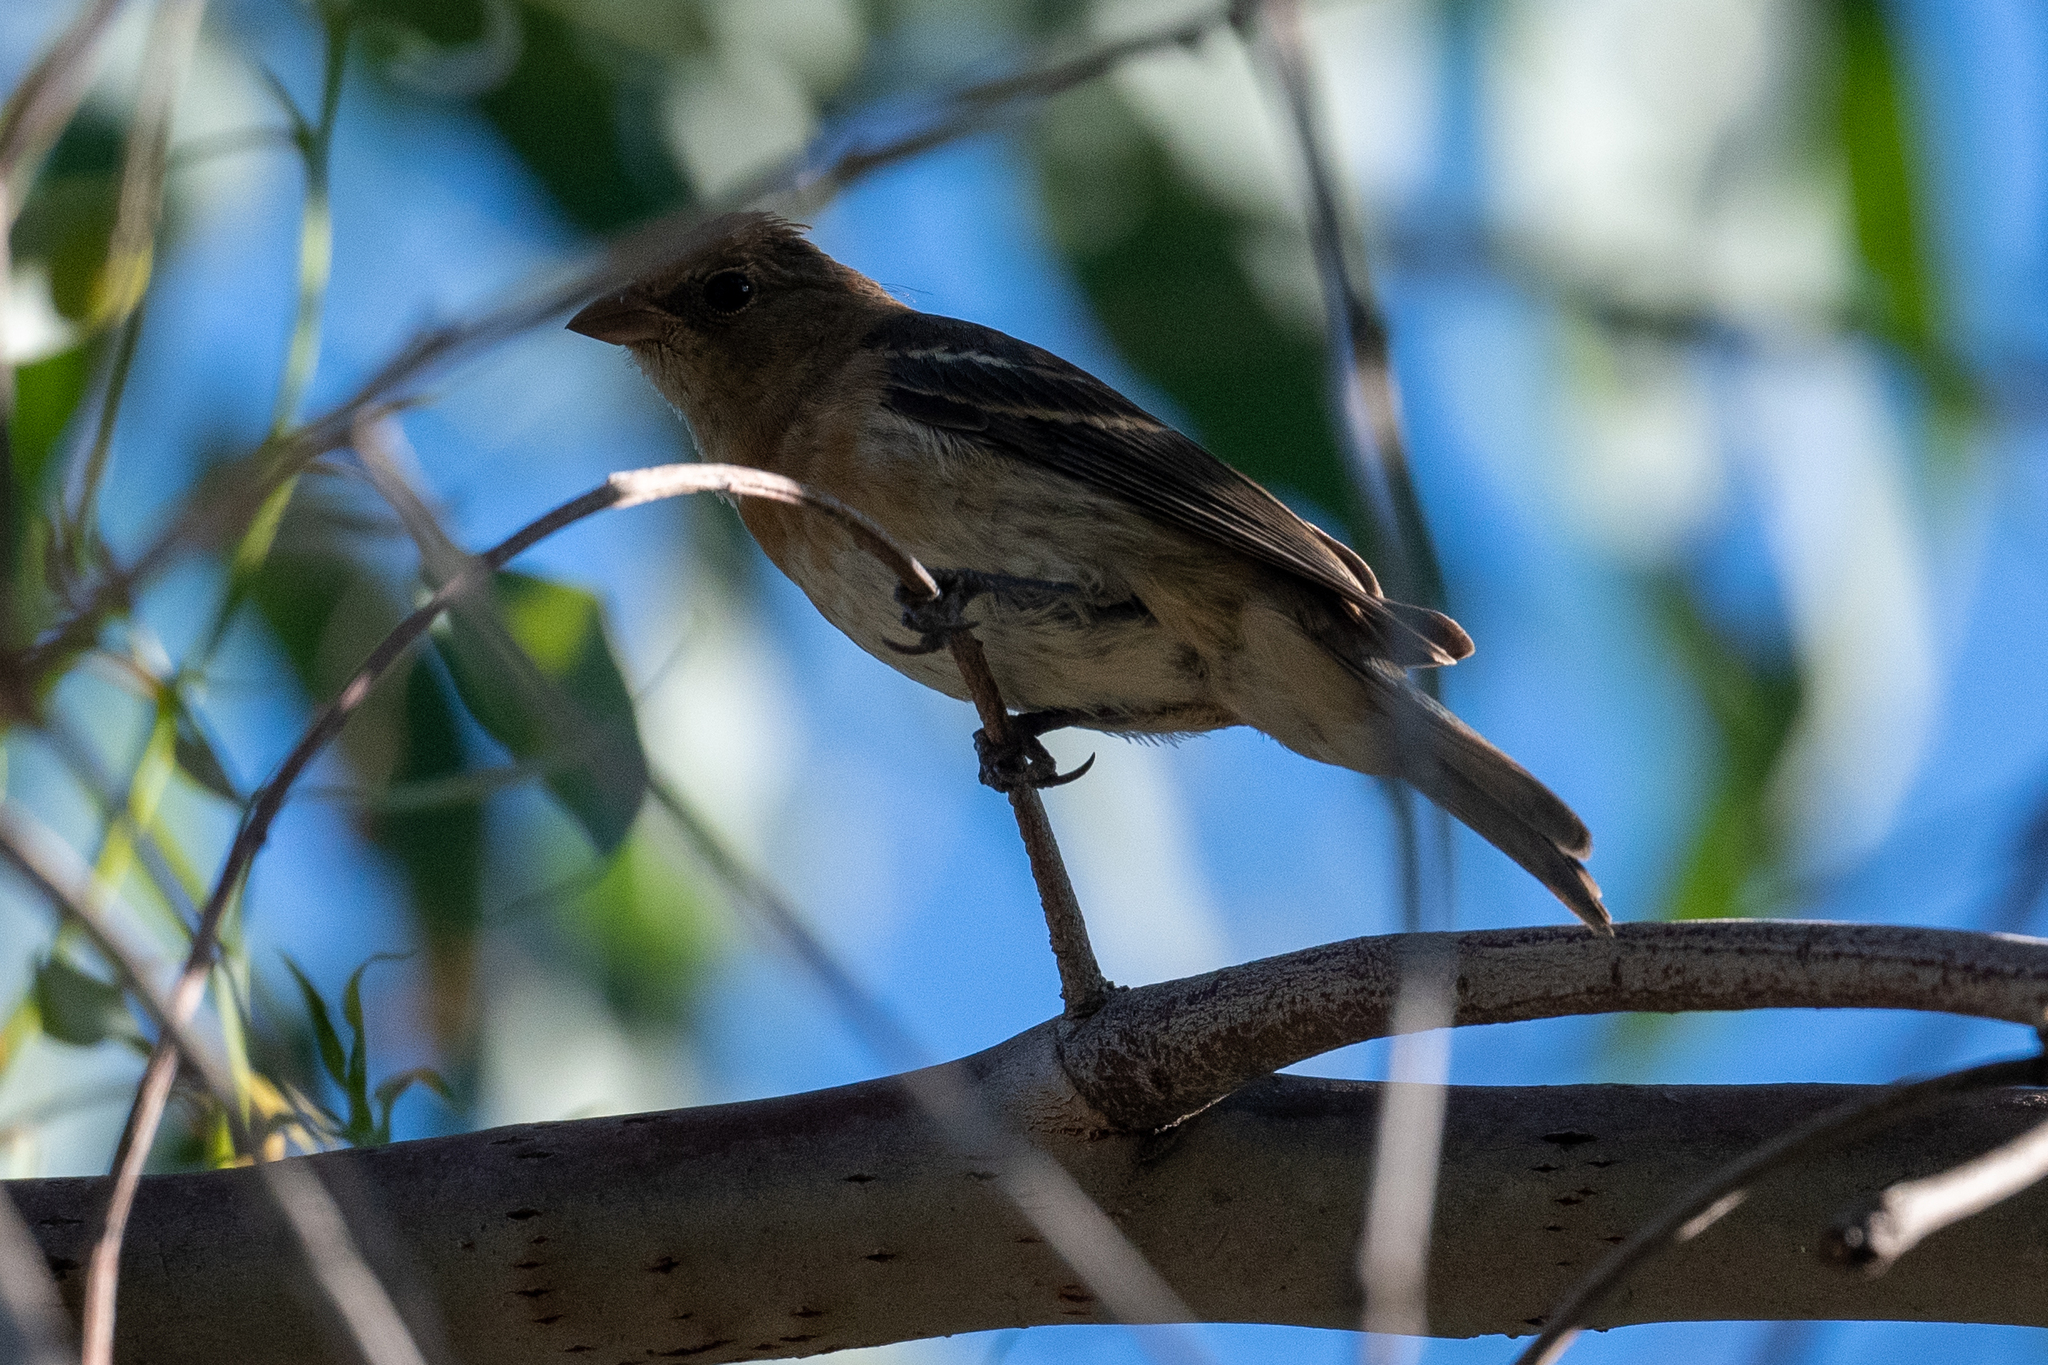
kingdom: Animalia
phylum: Chordata
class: Aves
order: Passeriformes
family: Cardinalidae
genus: Passerina
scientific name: Passerina amoena
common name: Lazuli bunting
